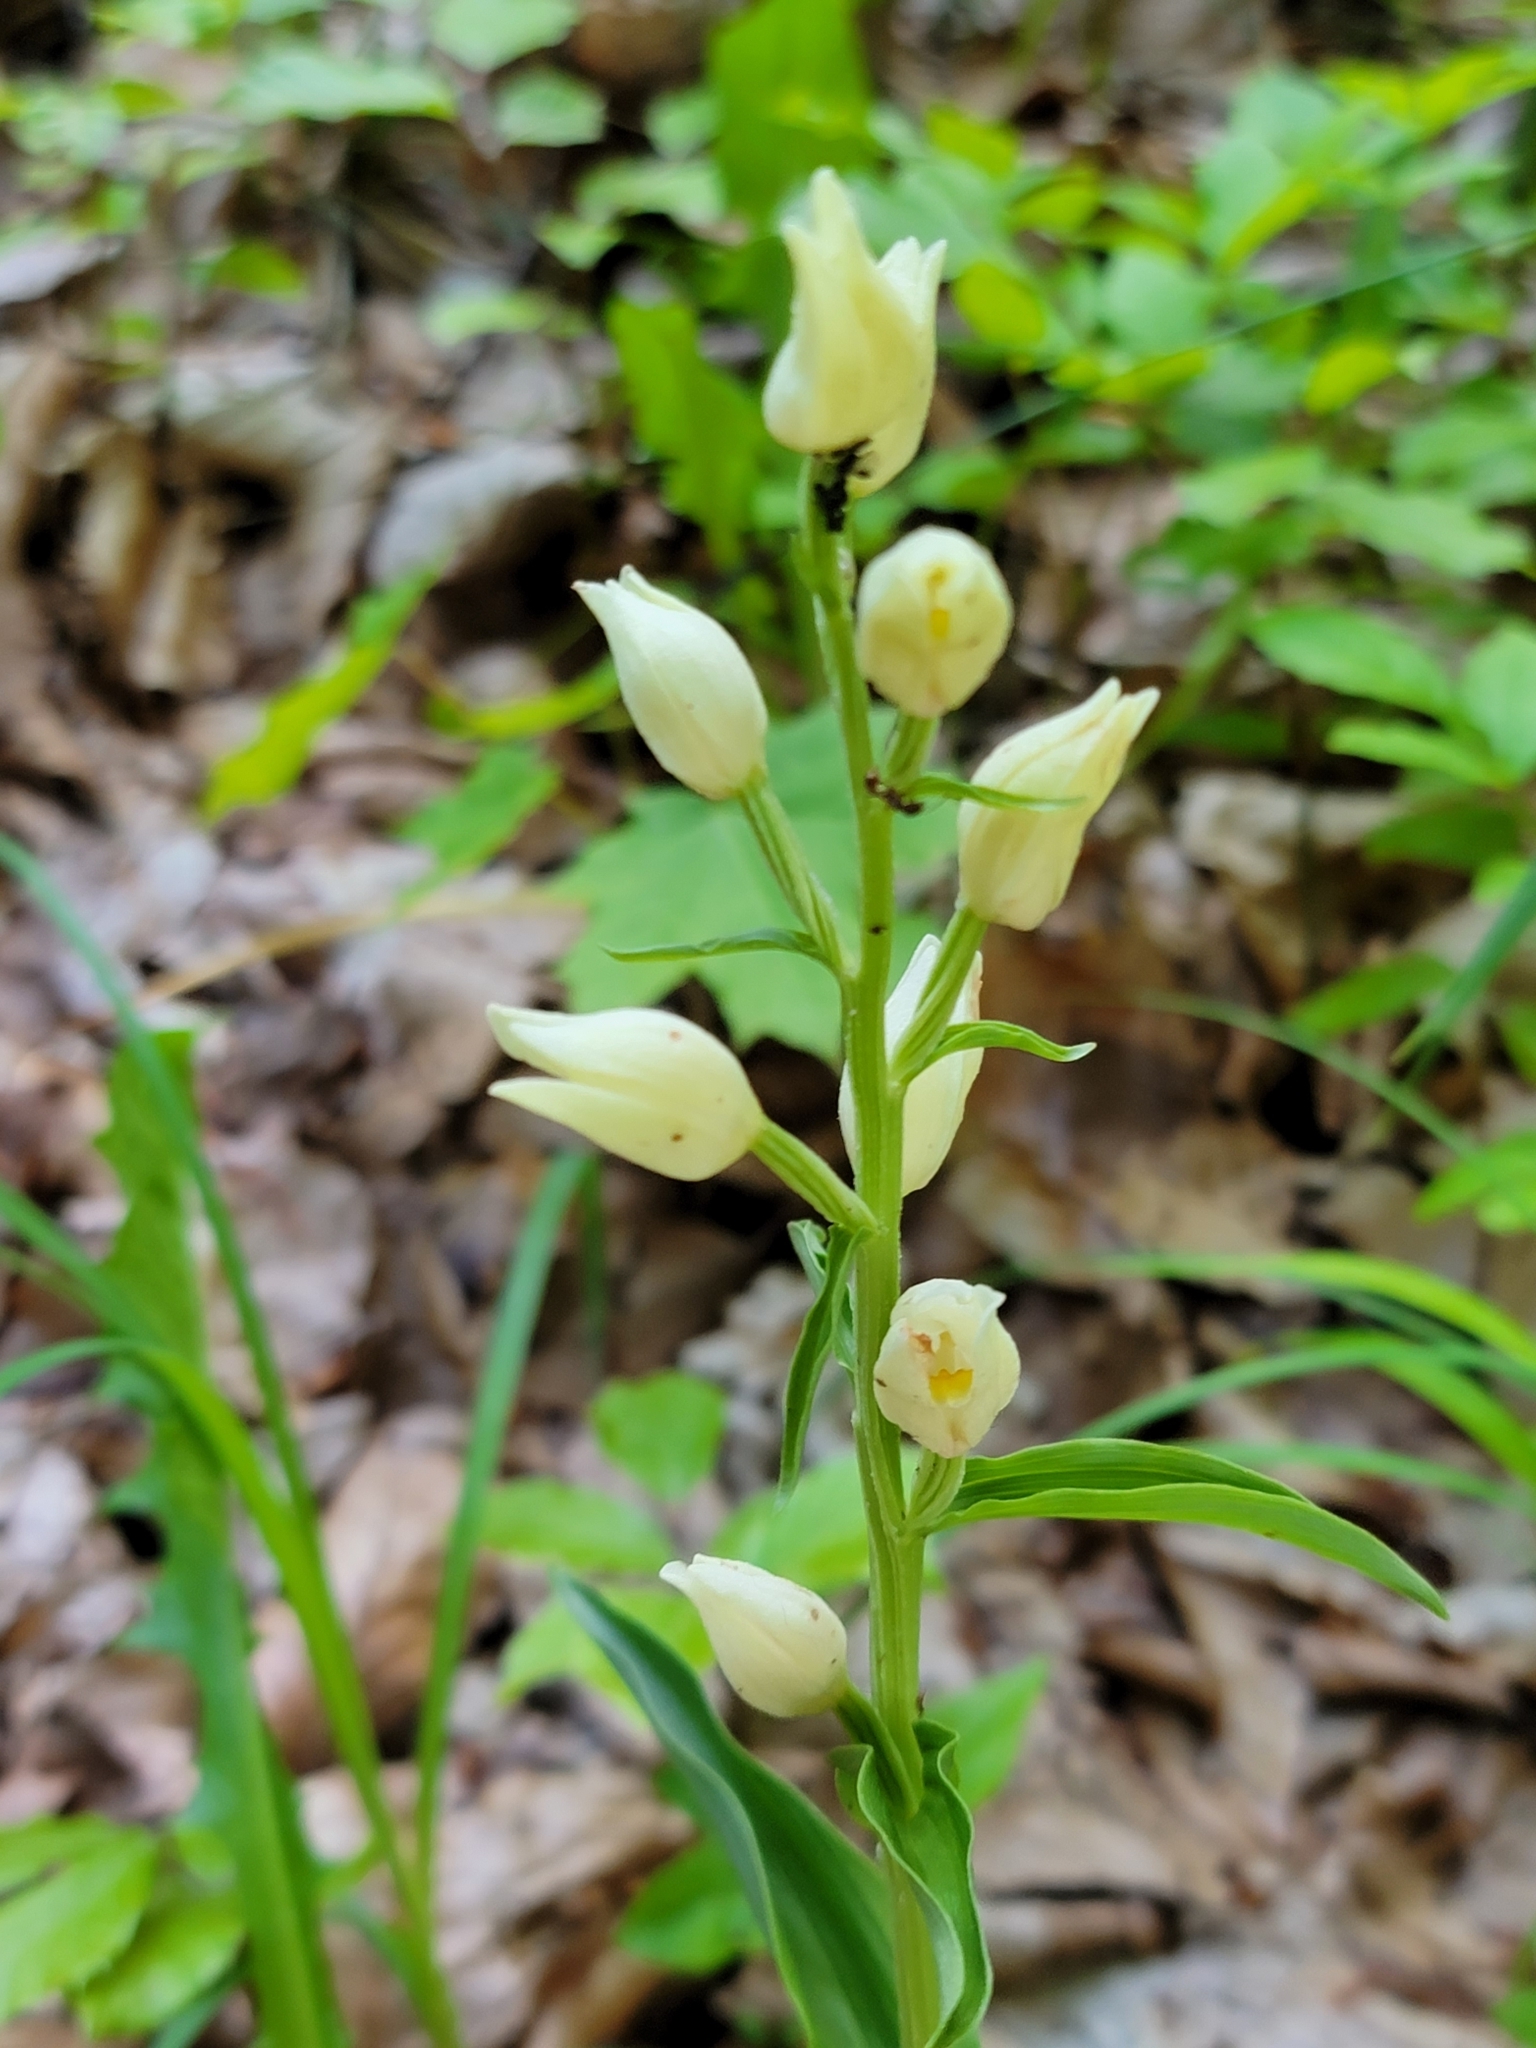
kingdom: Plantae
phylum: Tracheophyta
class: Liliopsida
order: Asparagales
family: Orchidaceae
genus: Cephalanthera
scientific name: Cephalanthera damasonium
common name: White helleborine
